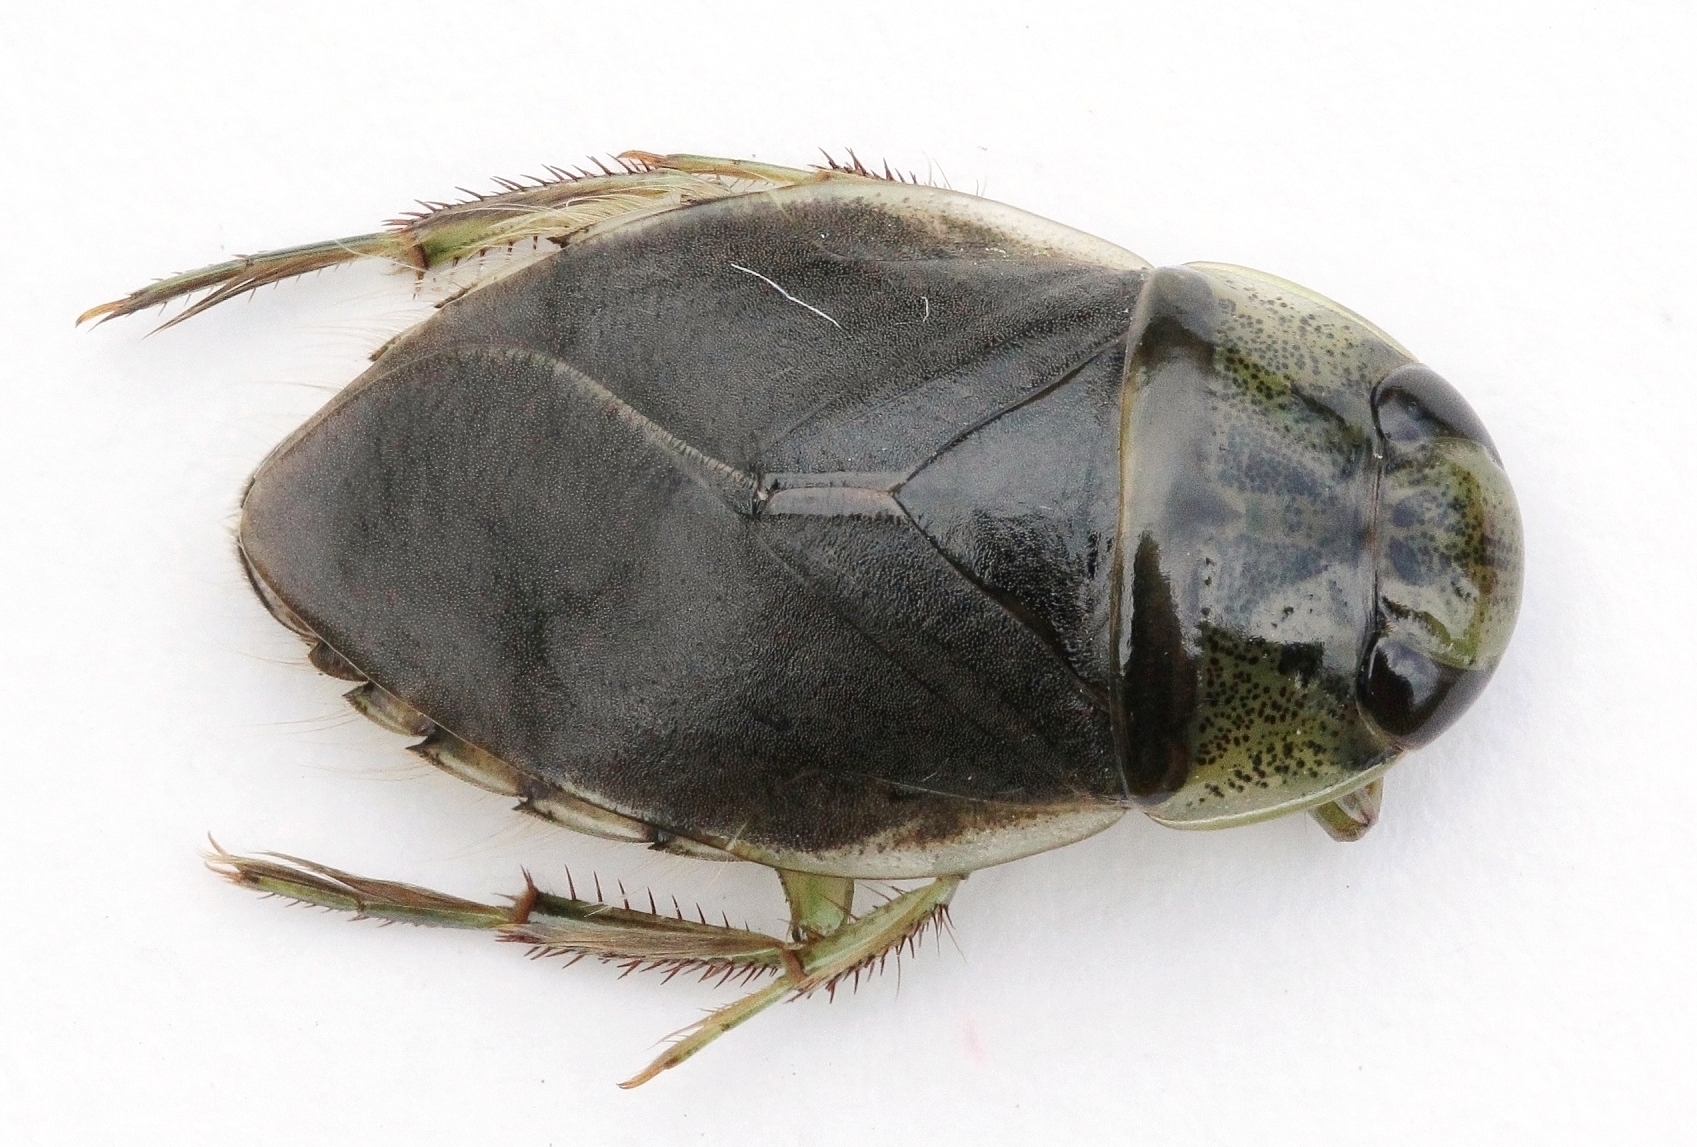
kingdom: Animalia
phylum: Arthropoda
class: Insecta
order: Hemiptera
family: Naucoridae
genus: Ilyocoris
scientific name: Ilyocoris cimicoides
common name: Saucer bugs
